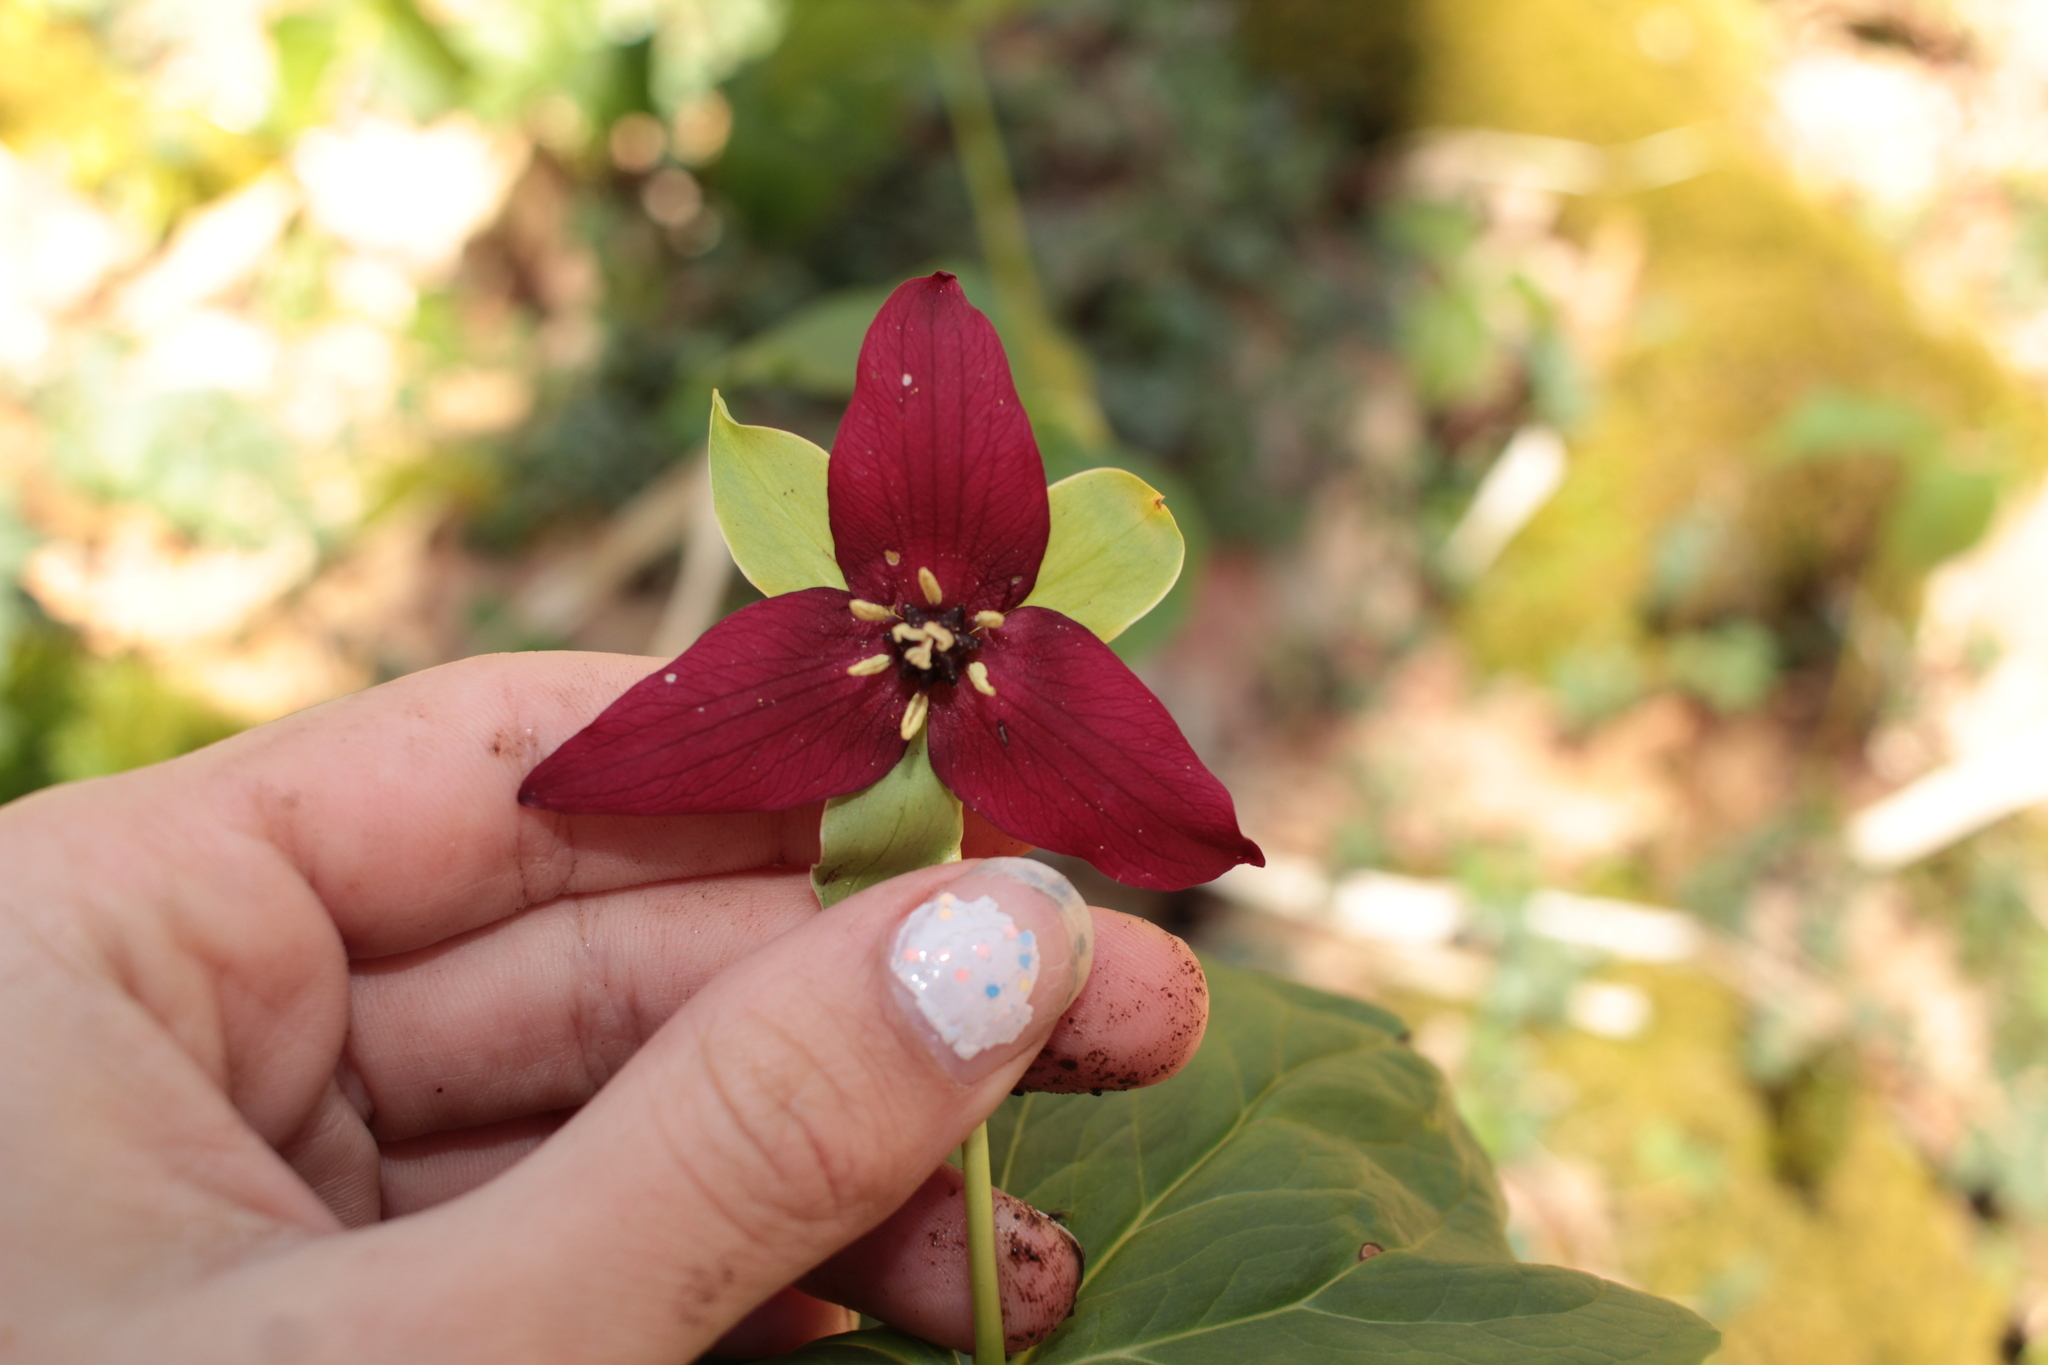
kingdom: Plantae
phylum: Tracheophyta
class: Liliopsida
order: Liliales
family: Melanthiaceae
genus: Trillium
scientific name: Trillium erectum
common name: Purple trillium
